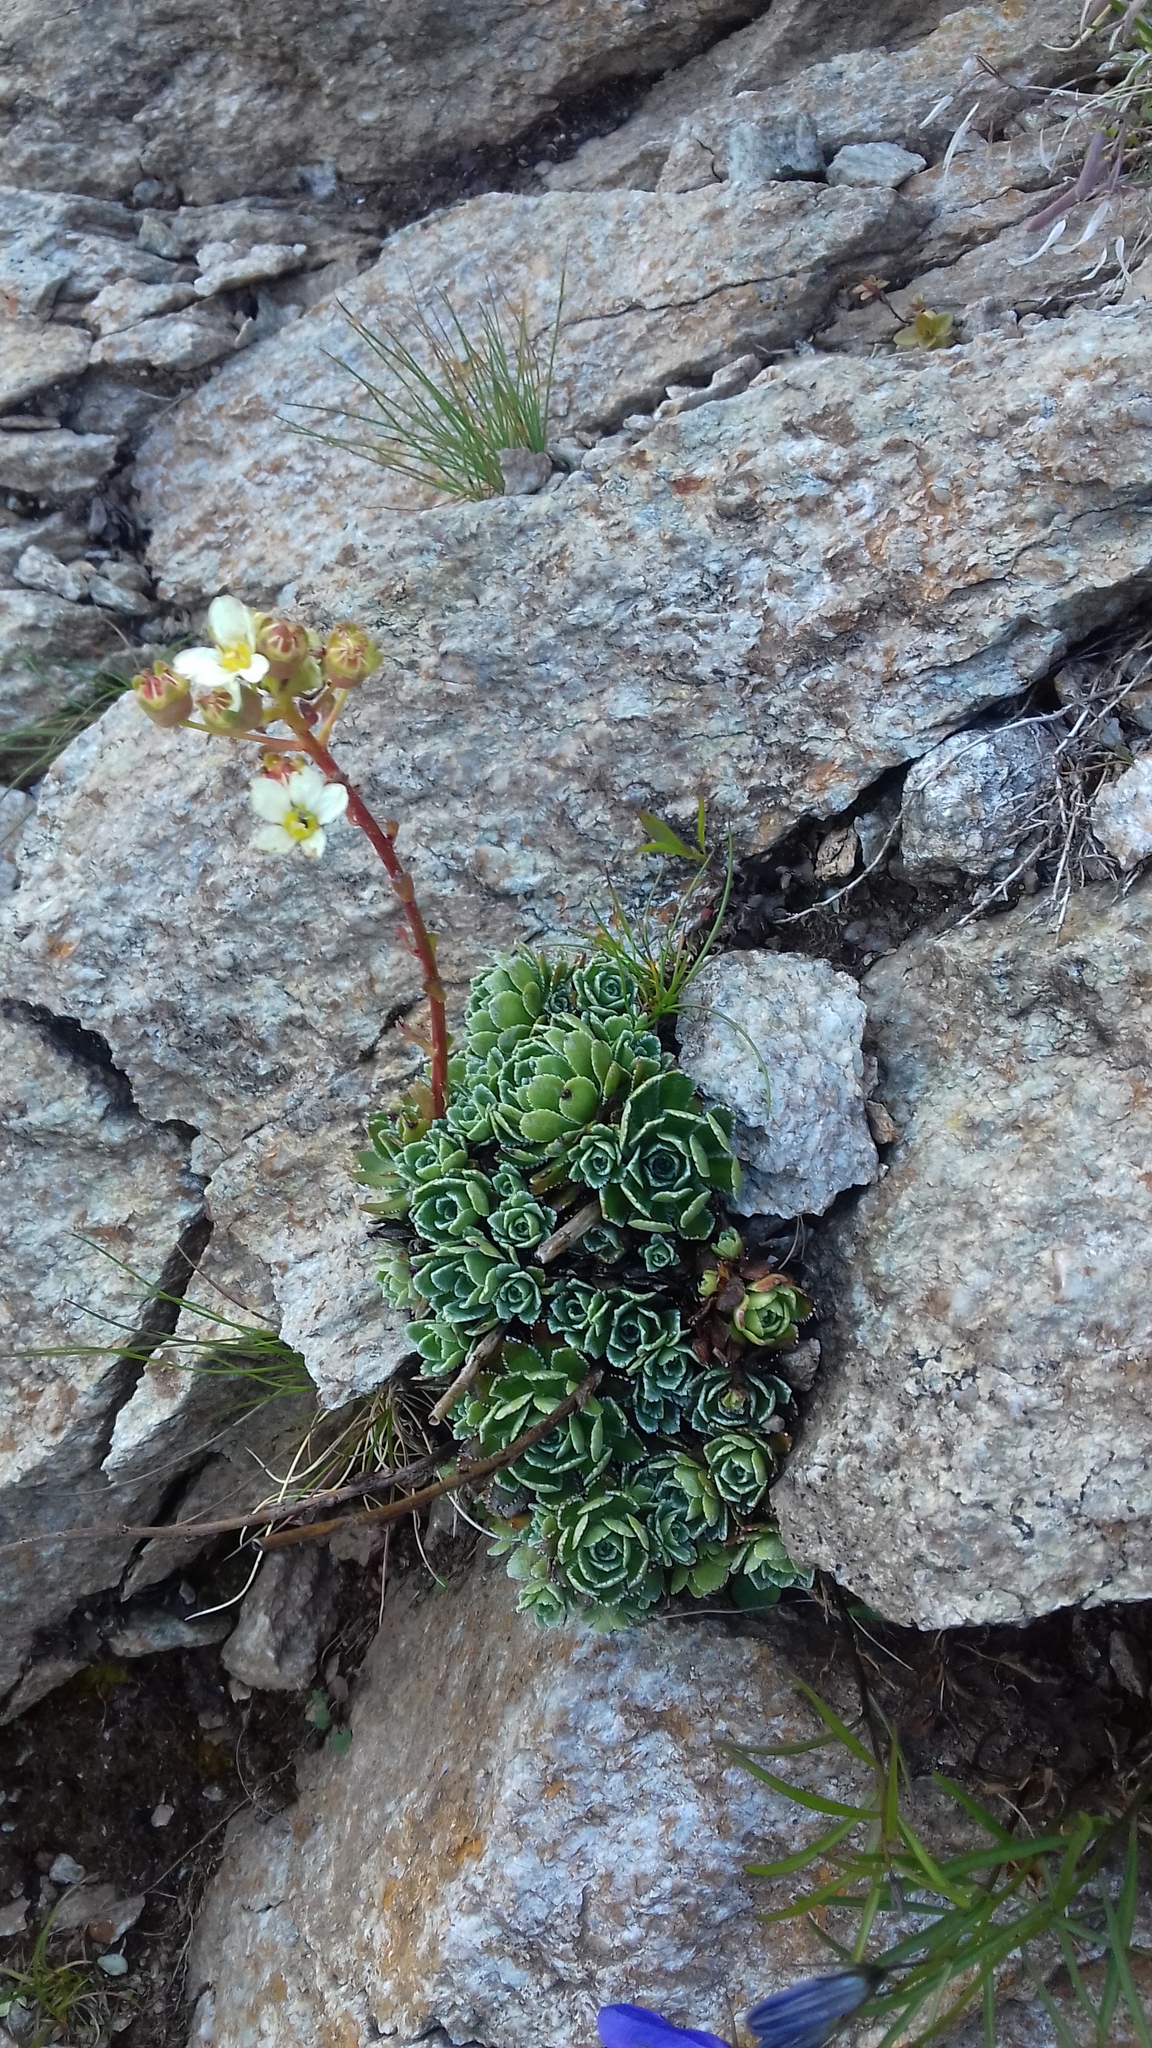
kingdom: Plantae
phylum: Tracheophyta
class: Magnoliopsida
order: Saxifragales
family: Saxifragaceae
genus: Saxifraga
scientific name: Saxifraga paniculata
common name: Livelong saxifrage
